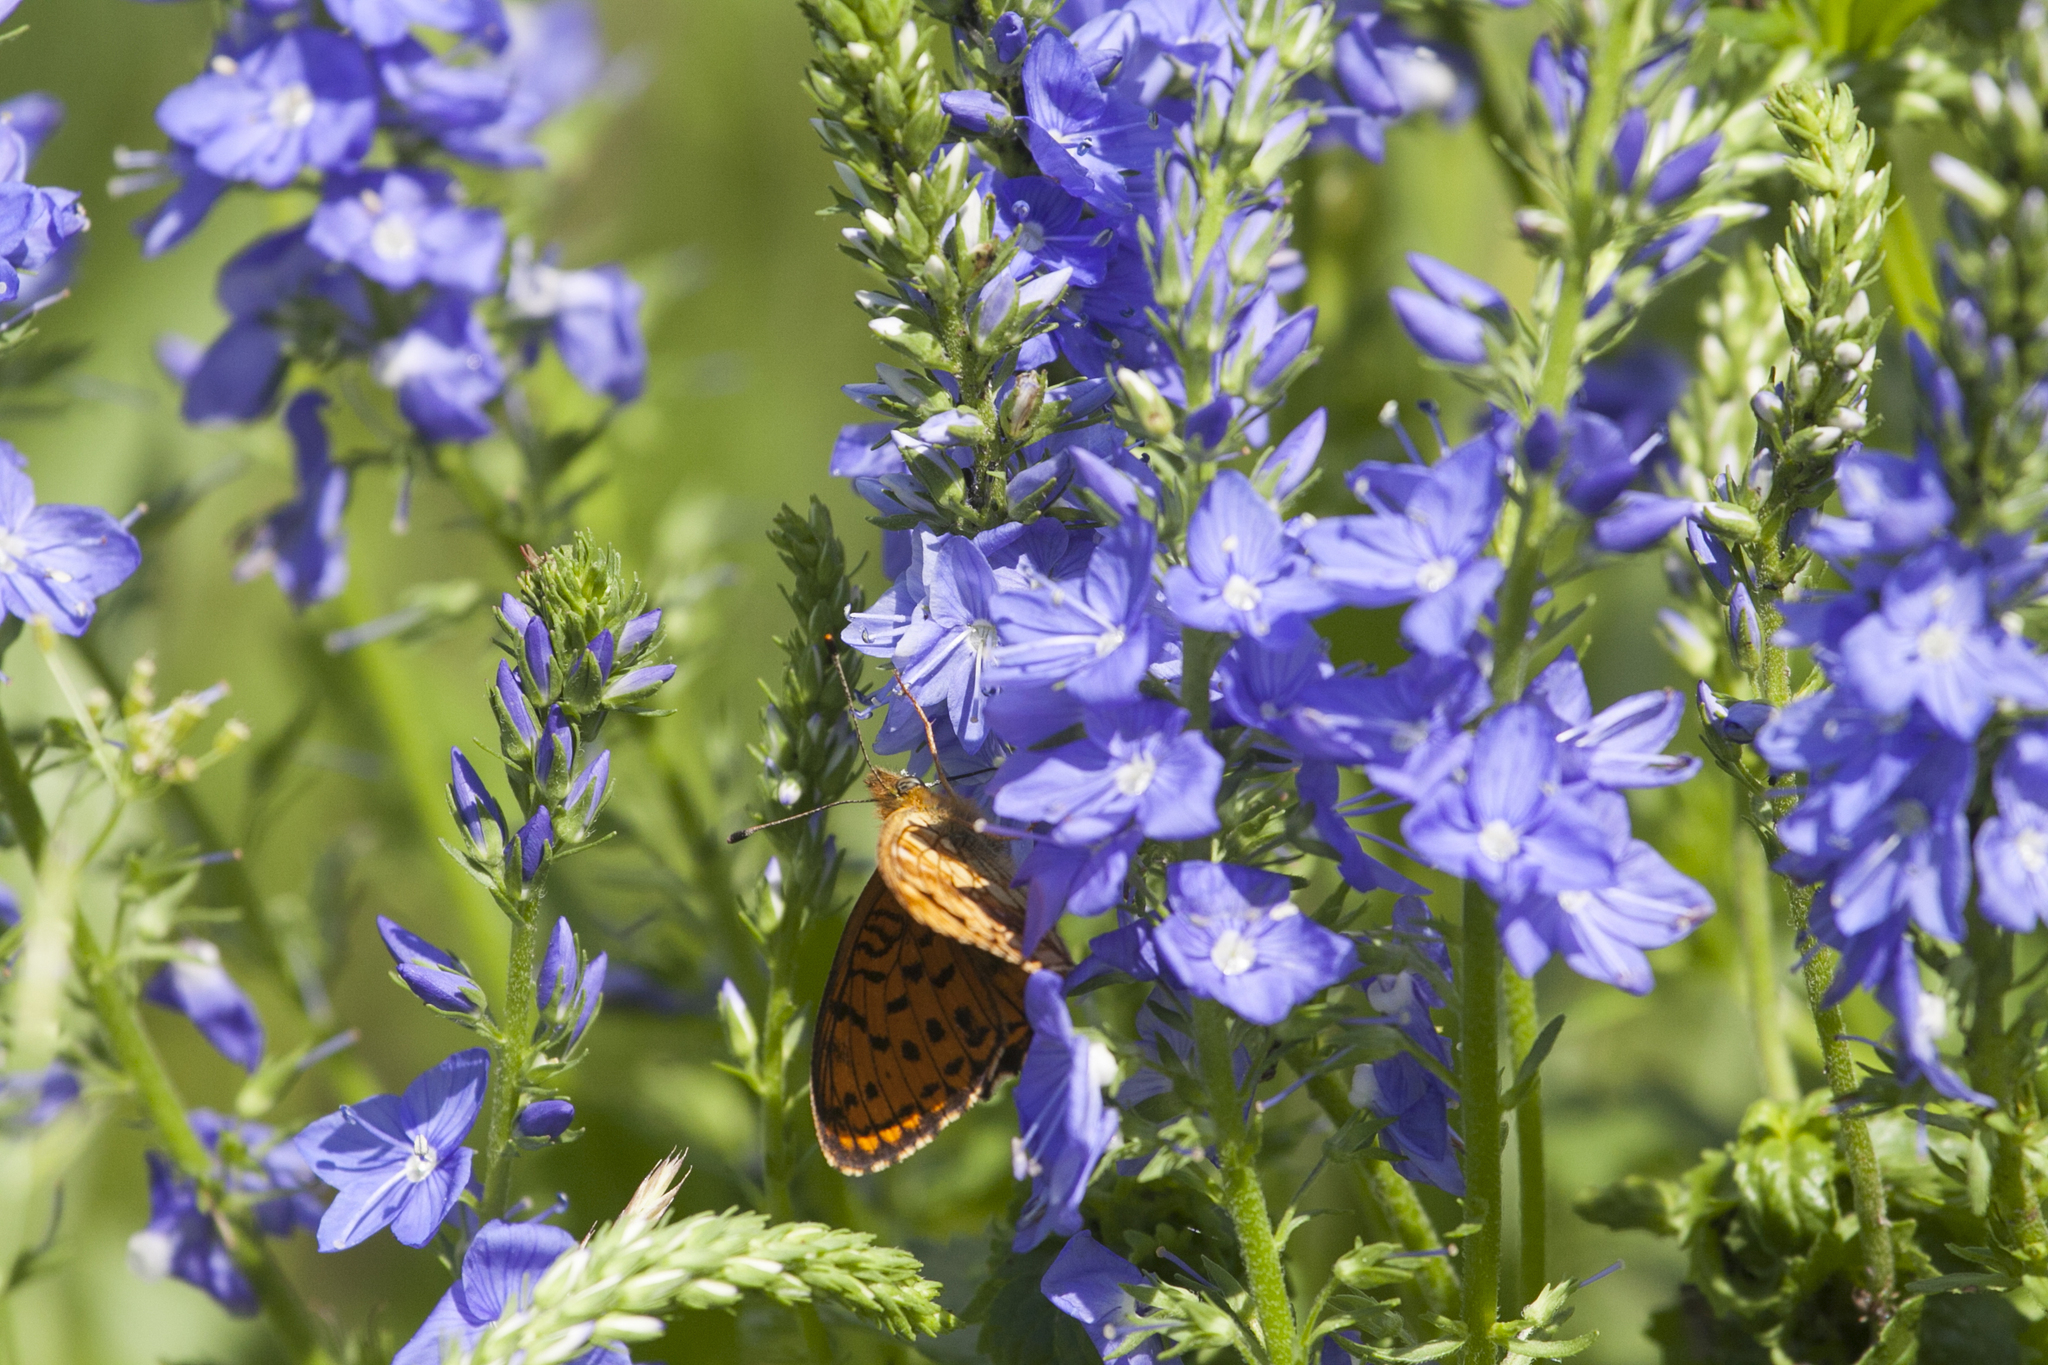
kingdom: Plantae
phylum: Tracheophyta
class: Magnoliopsida
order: Lamiales
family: Plantaginaceae
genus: Veronica
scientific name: Veronica teucrium
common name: Large speedwell
